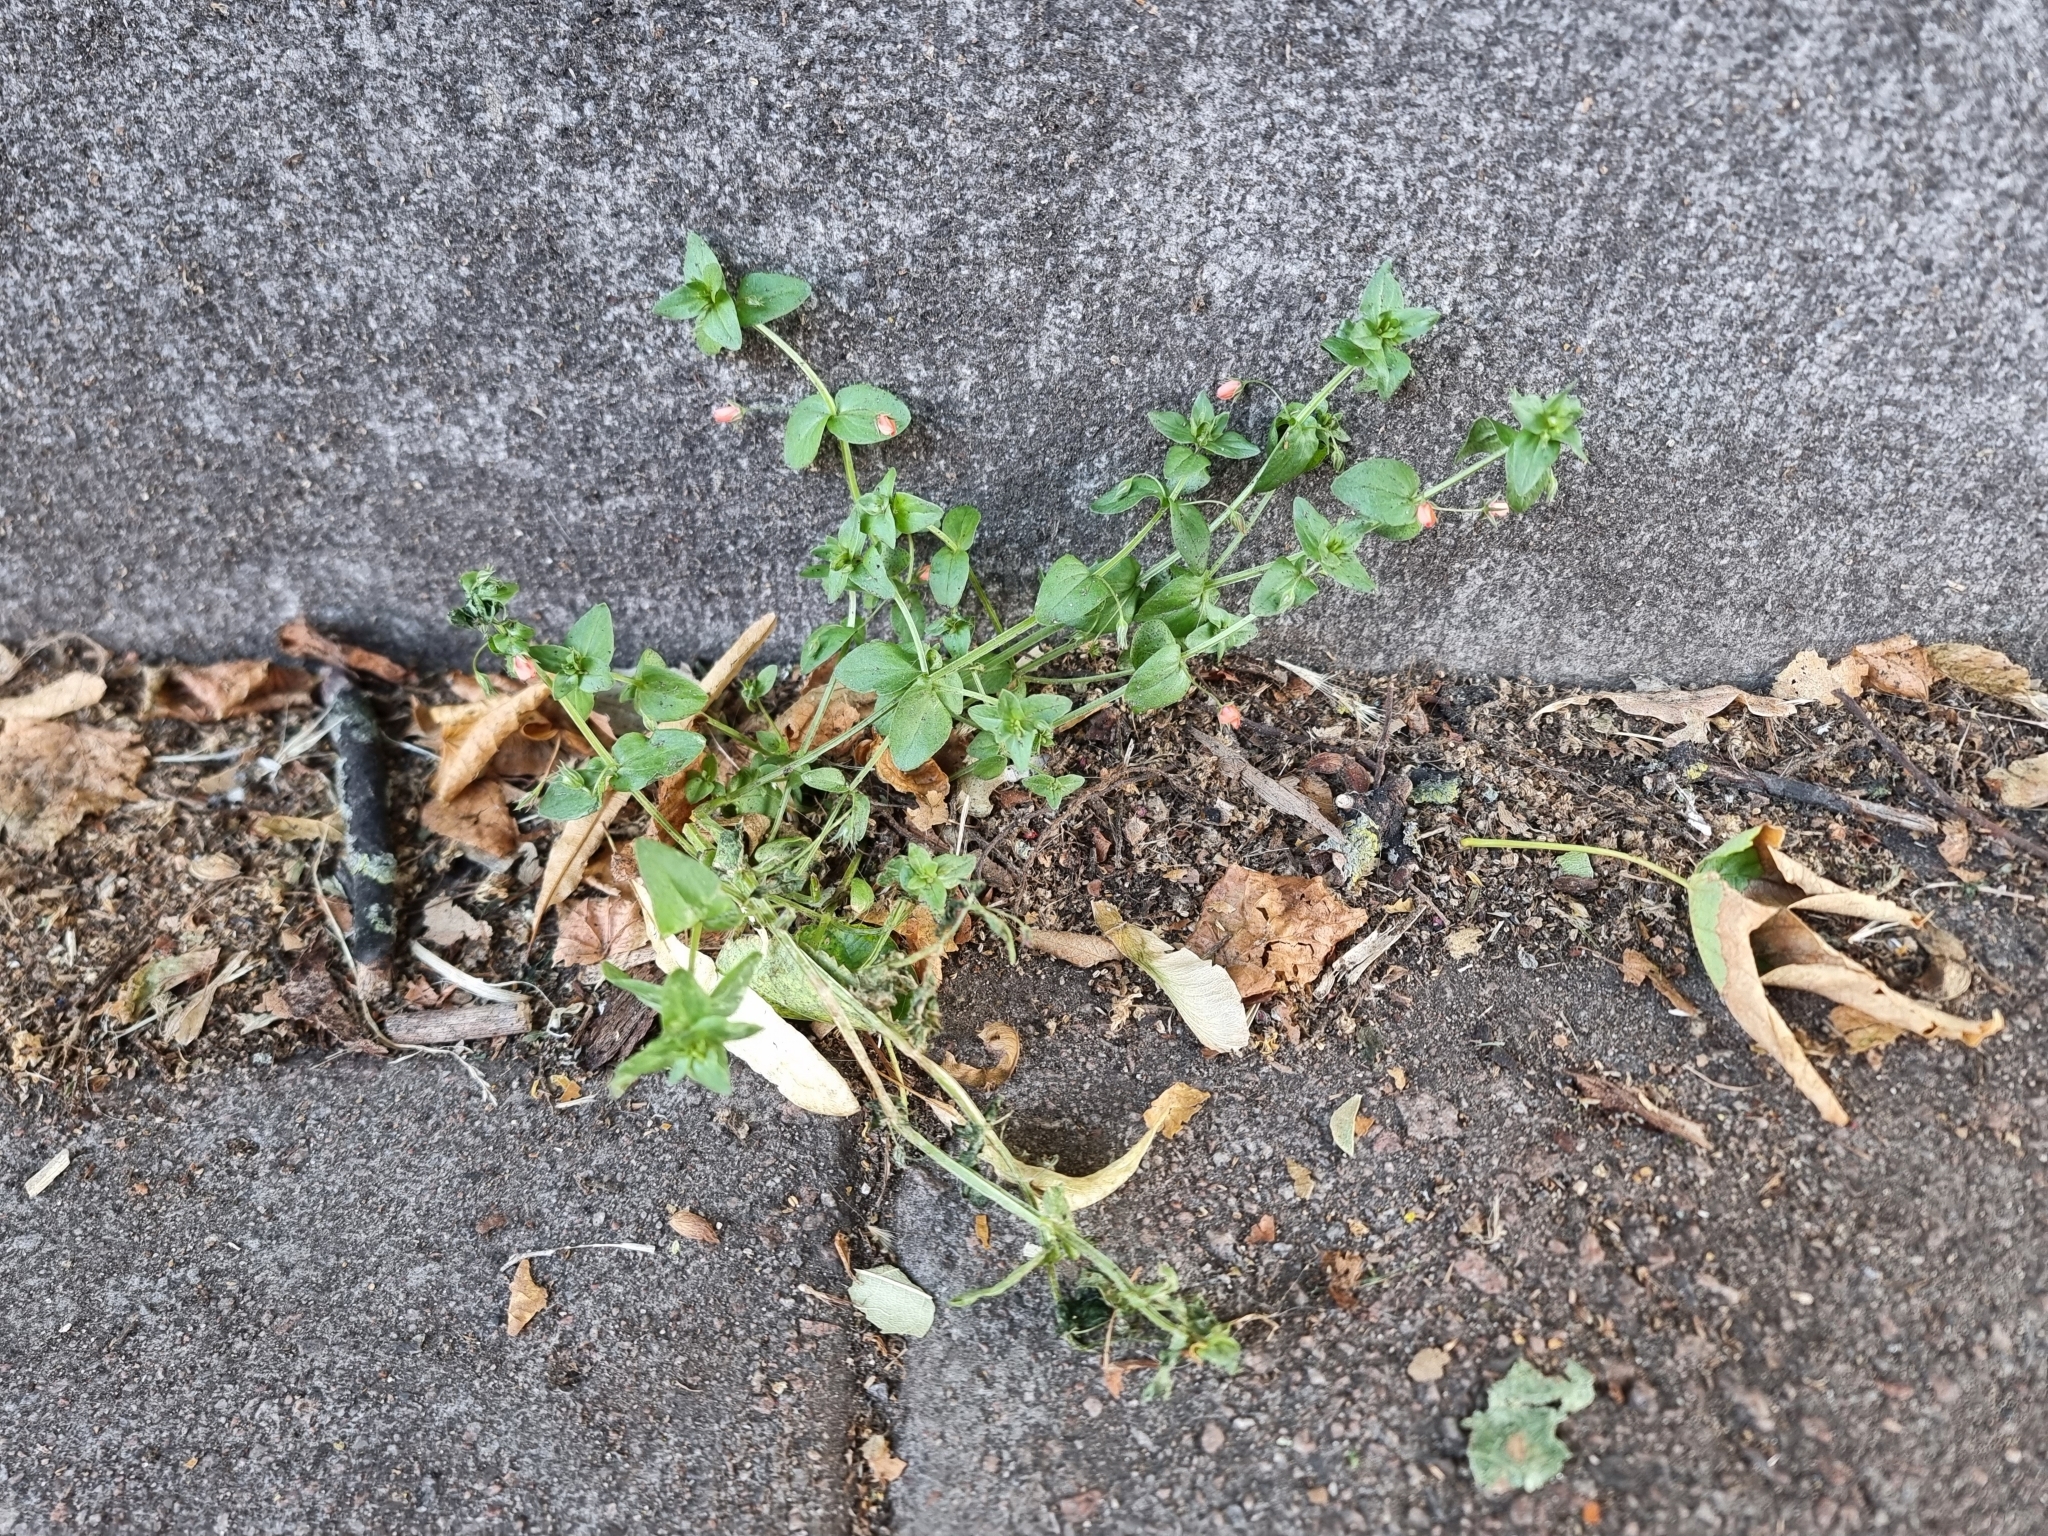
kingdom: Plantae
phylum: Tracheophyta
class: Magnoliopsida
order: Ericales
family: Primulaceae
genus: Lysimachia
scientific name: Lysimachia arvensis
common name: Scarlet pimpernel
